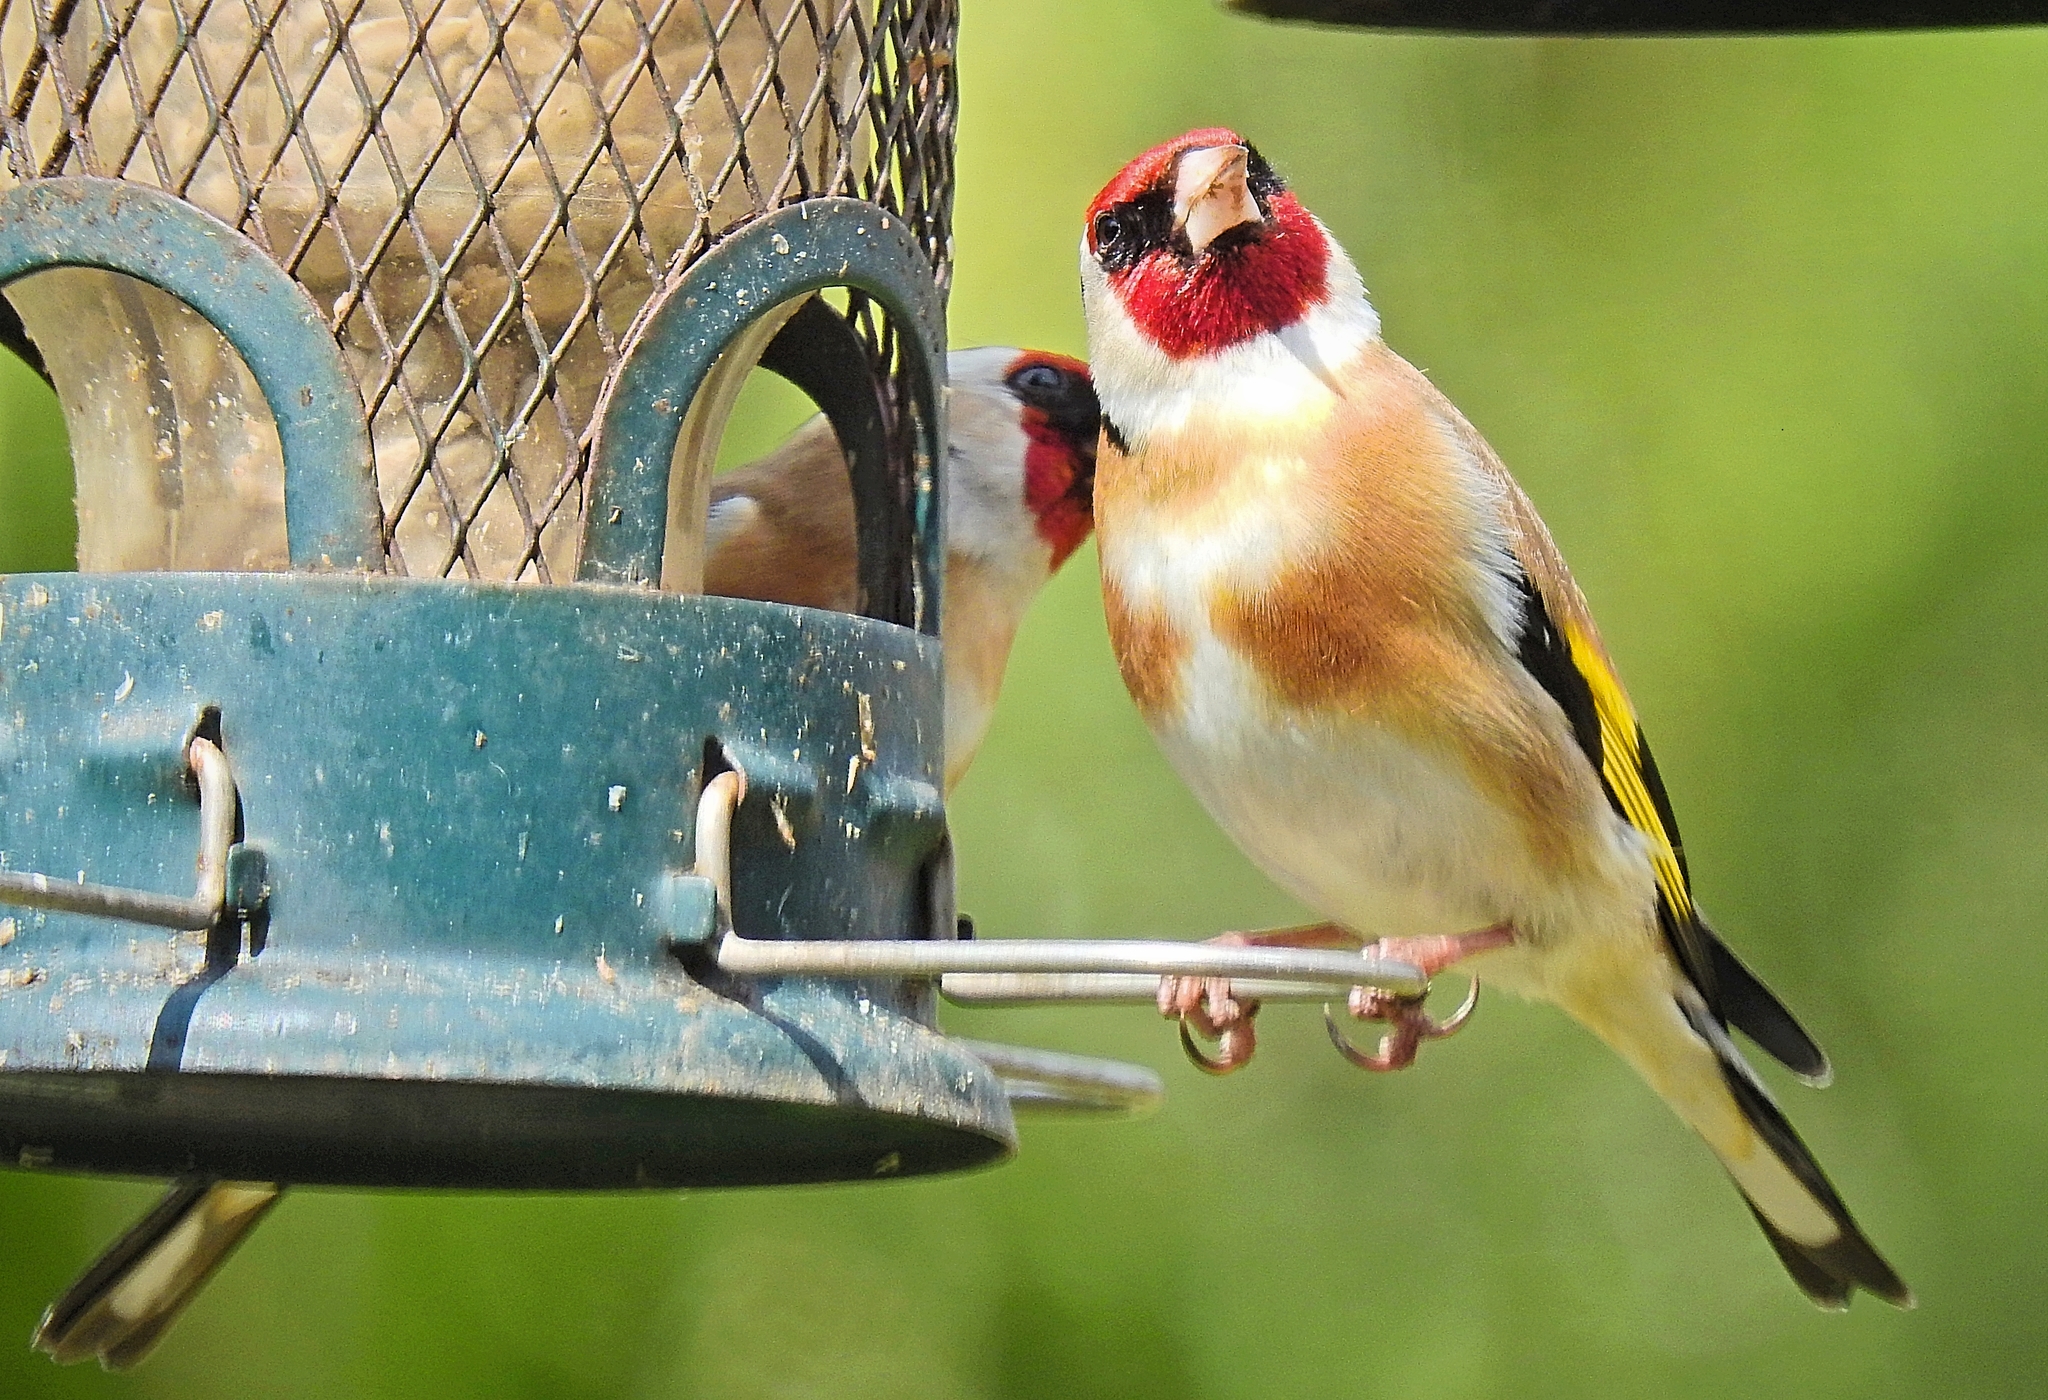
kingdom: Animalia
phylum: Chordata
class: Aves
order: Passeriformes
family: Fringillidae
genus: Carduelis
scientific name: Carduelis carduelis
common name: European goldfinch
